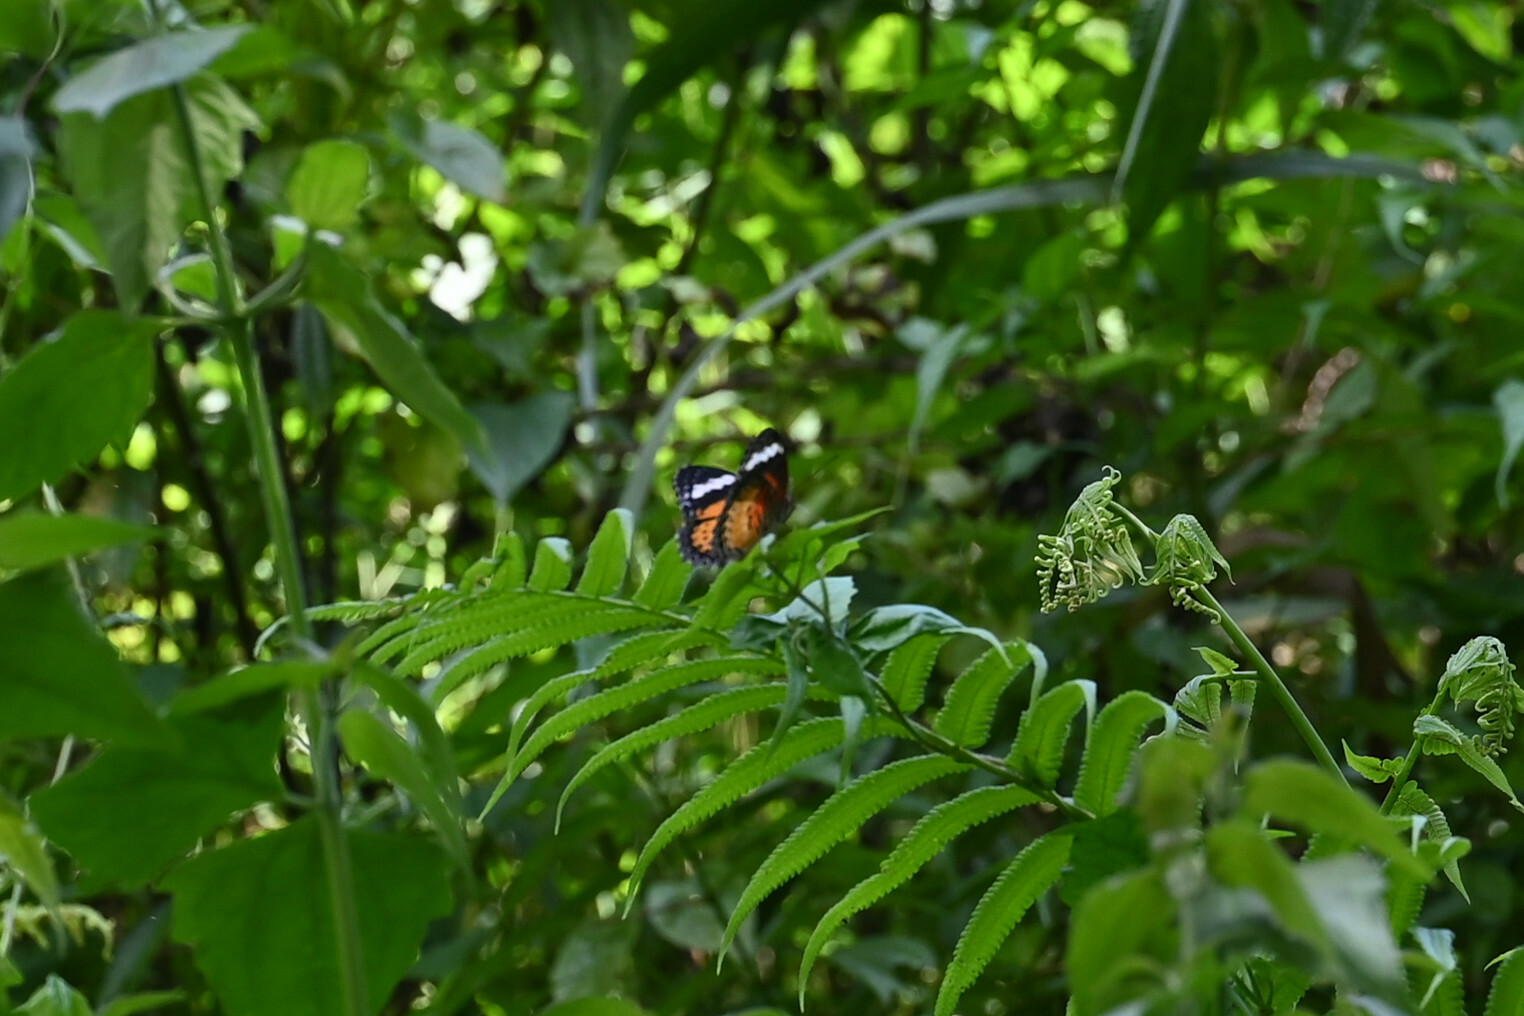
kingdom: Animalia
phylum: Arthropoda
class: Insecta
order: Lepidoptera
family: Nymphalidae
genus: Cethosia
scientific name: Cethosia cyane
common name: Leopard lacewing butterfly
